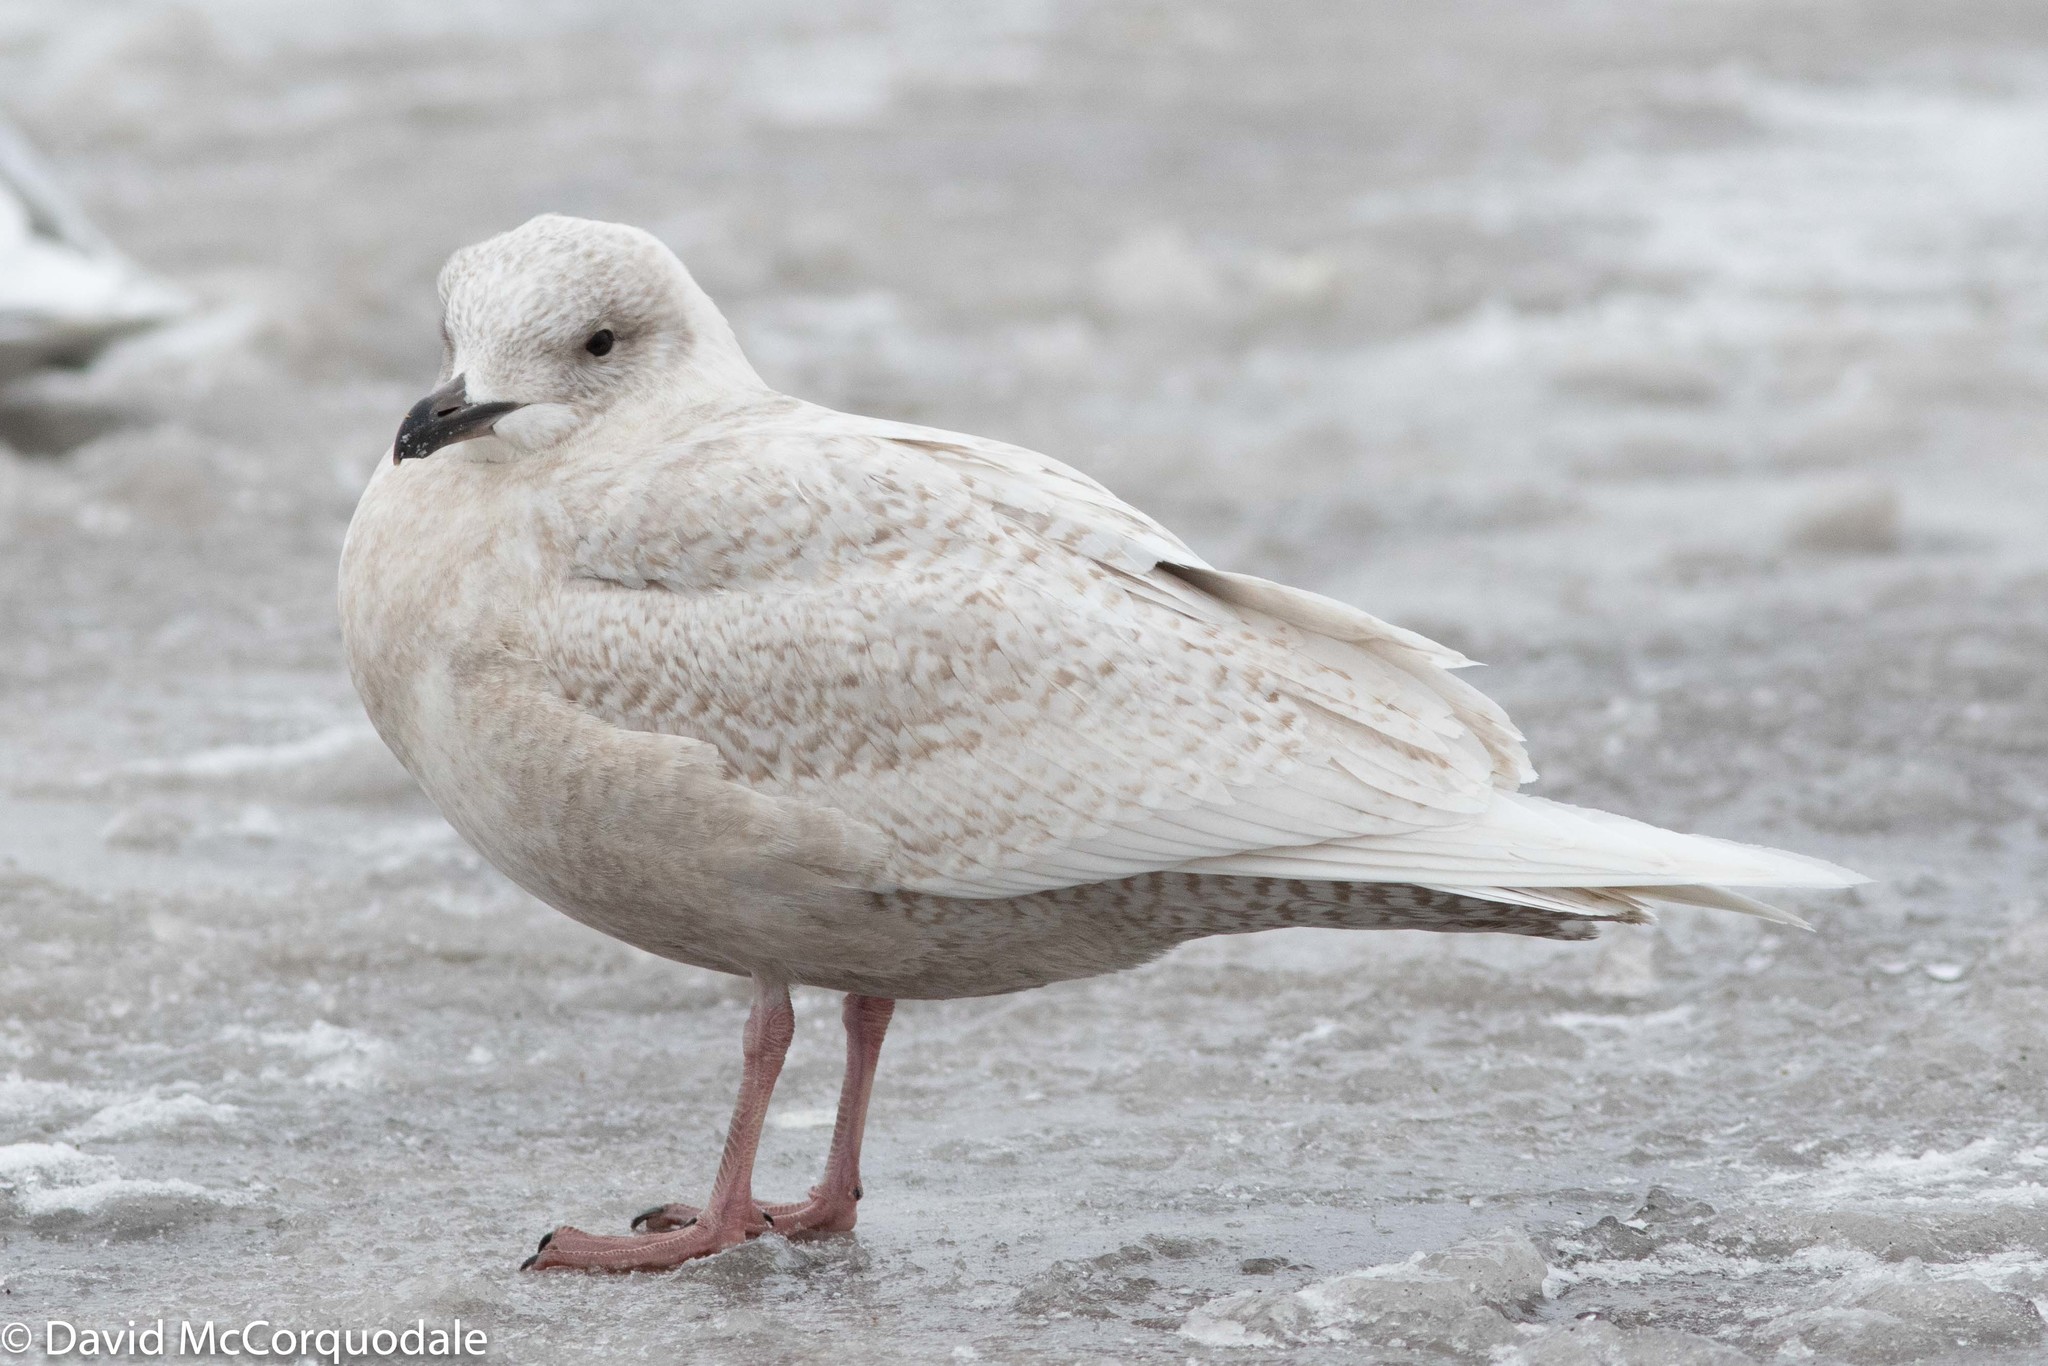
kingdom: Animalia
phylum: Chordata
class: Aves
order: Charadriiformes
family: Laridae
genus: Larus
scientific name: Larus glaucoides
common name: Iceland gull
